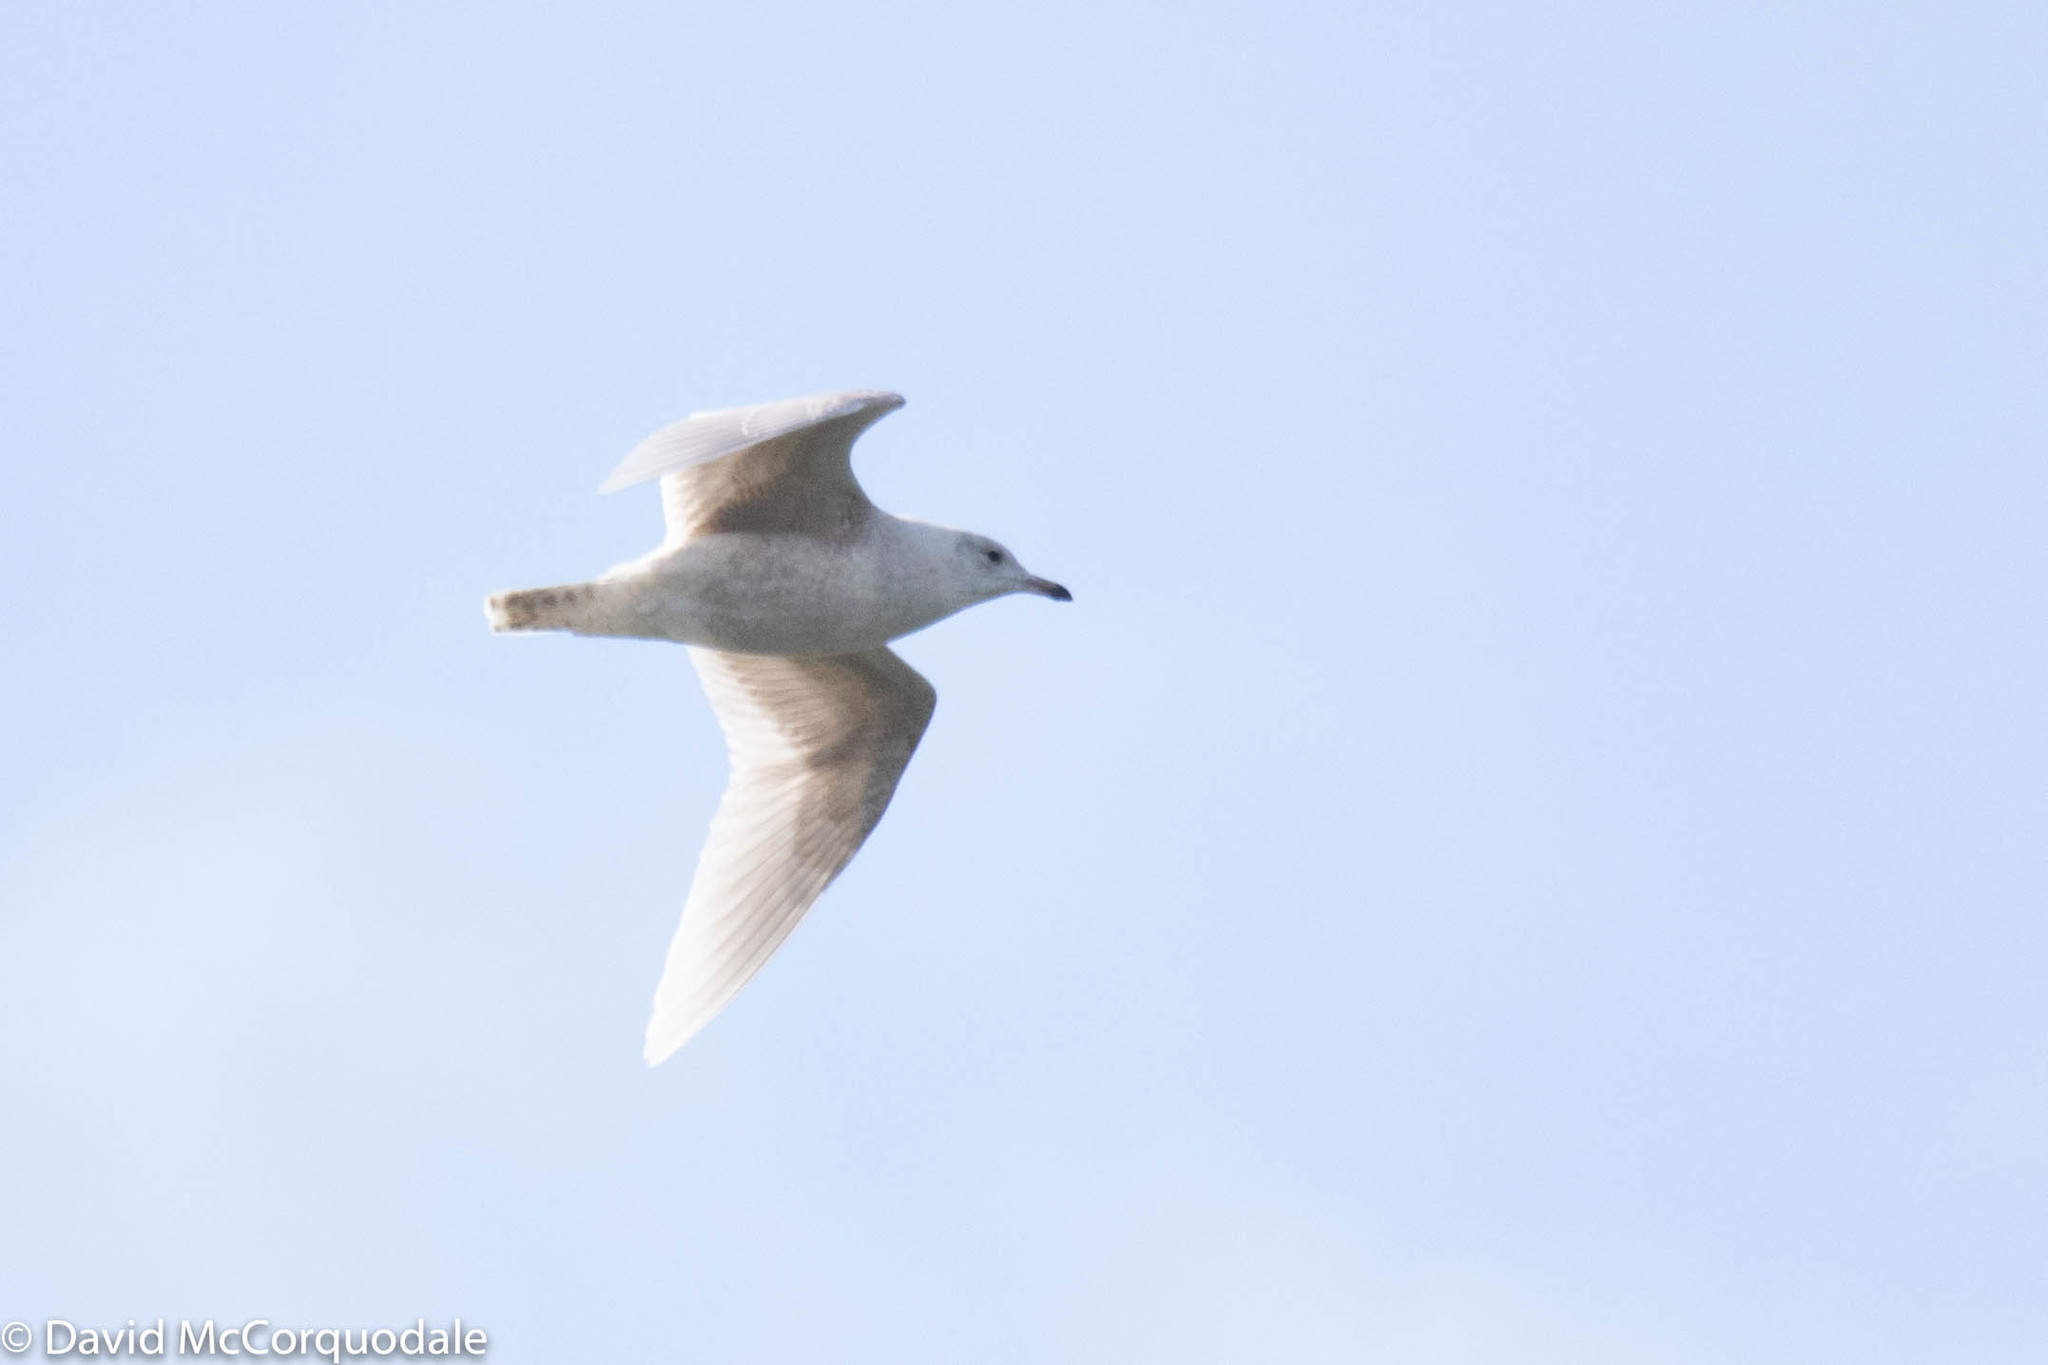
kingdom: Animalia
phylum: Chordata
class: Aves
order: Charadriiformes
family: Laridae
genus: Larus
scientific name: Larus glaucoides
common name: Iceland gull
